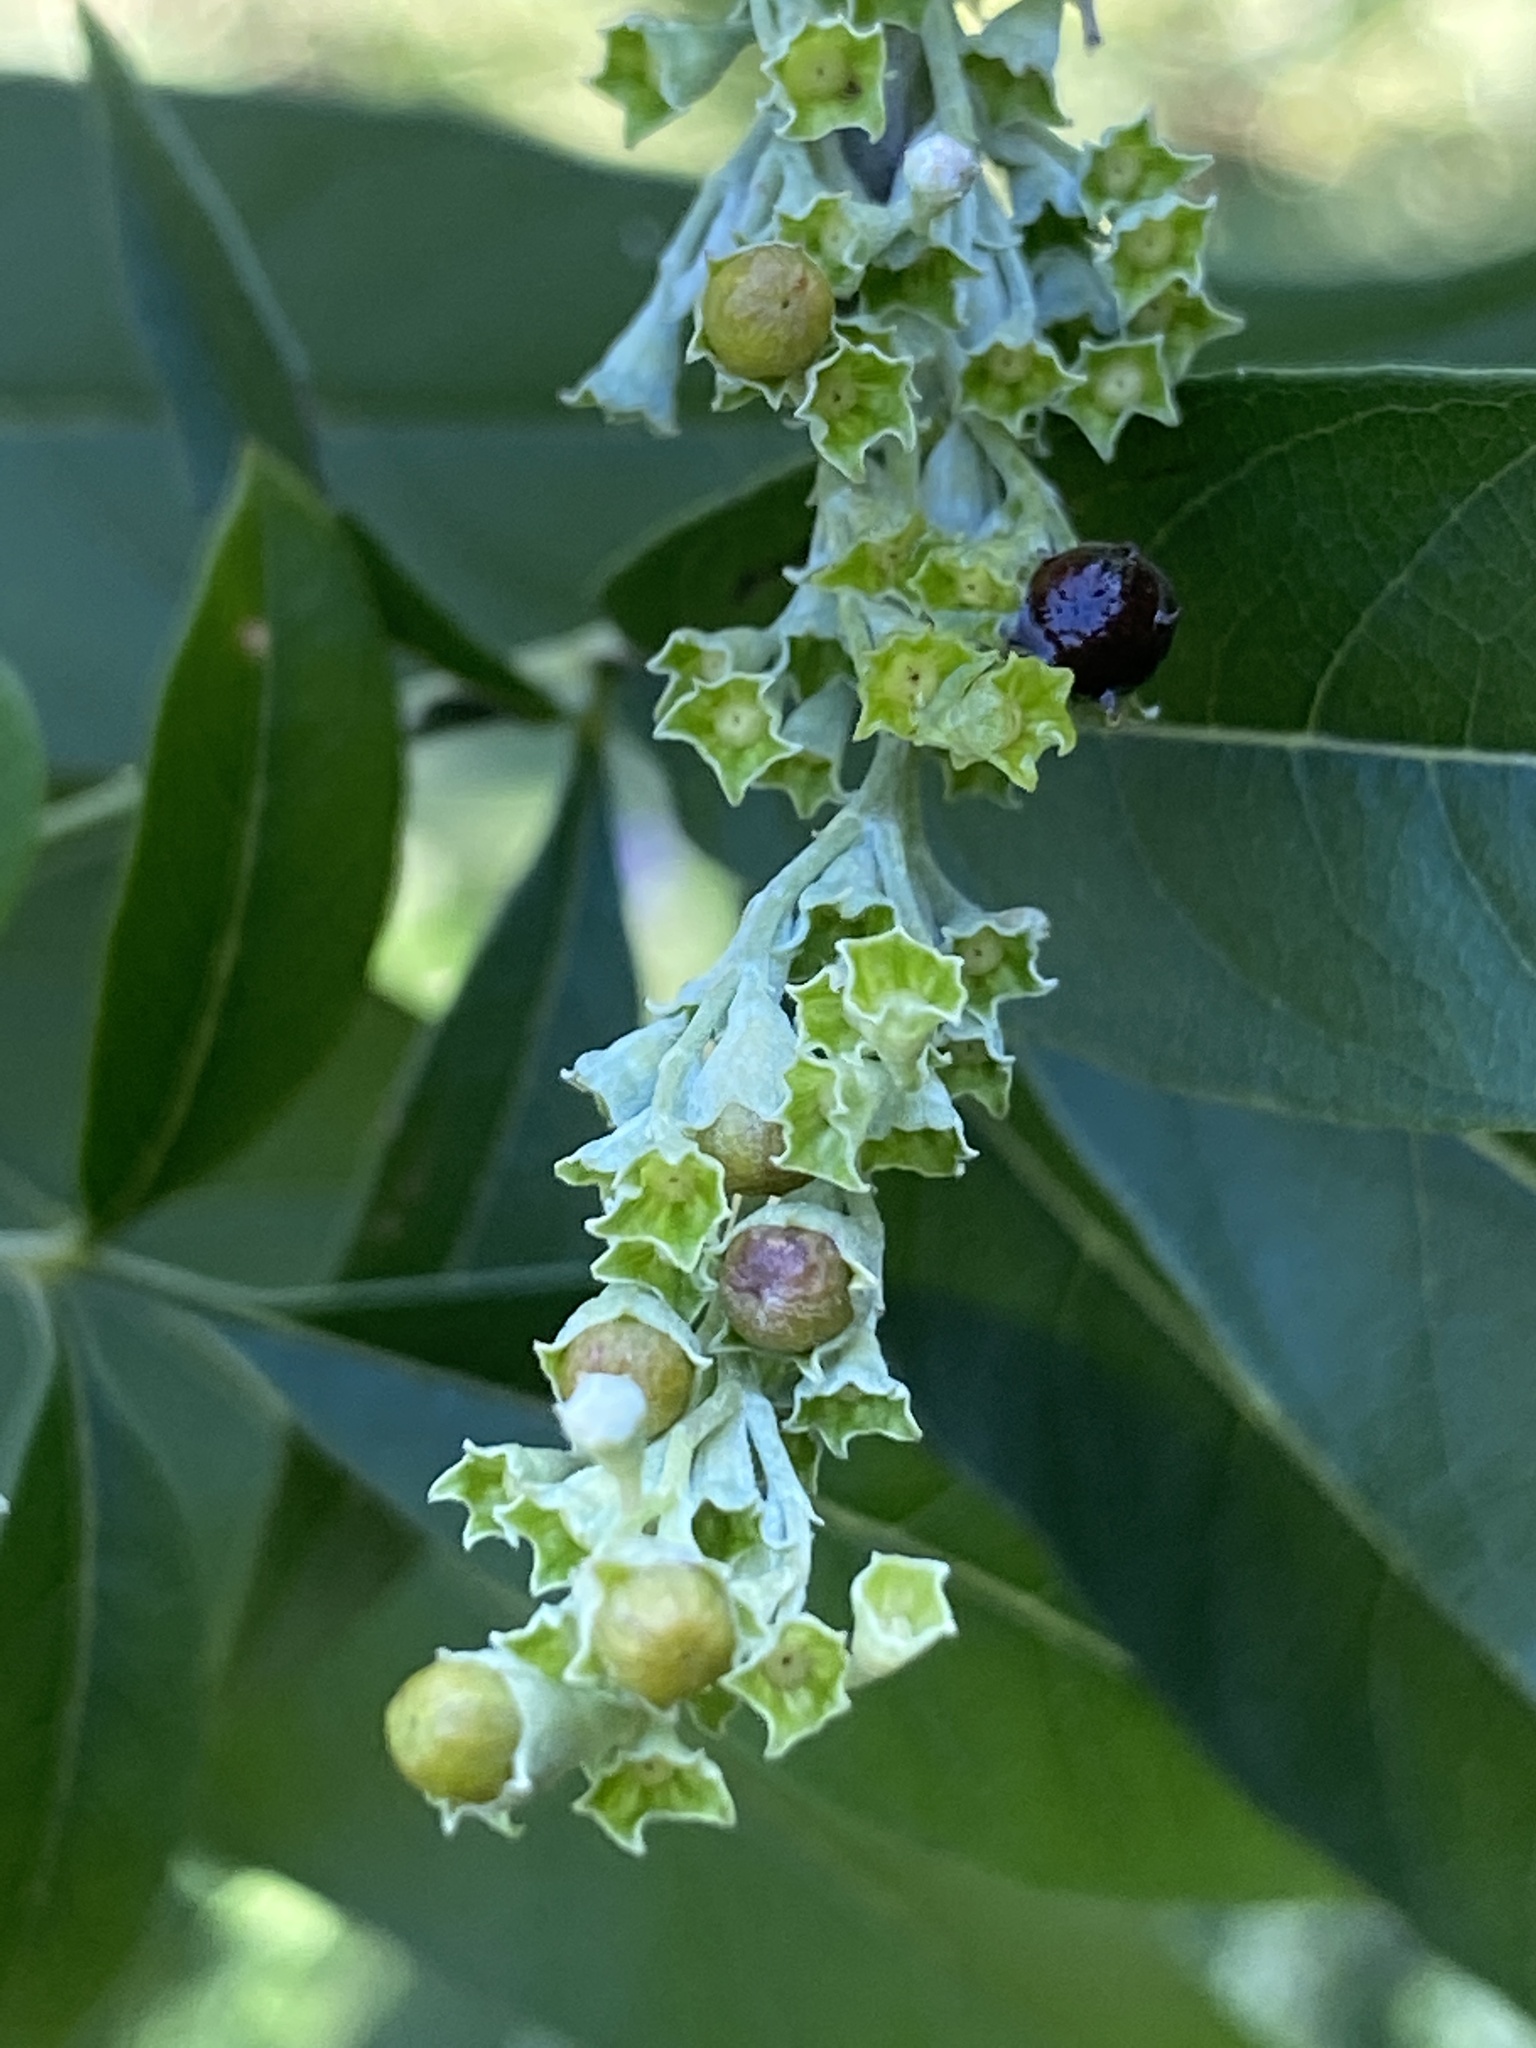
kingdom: Plantae
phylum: Tracheophyta
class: Magnoliopsida
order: Lamiales
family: Lamiaceae
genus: Vitex
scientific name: Vitex negundo
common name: Chinese chastetree
